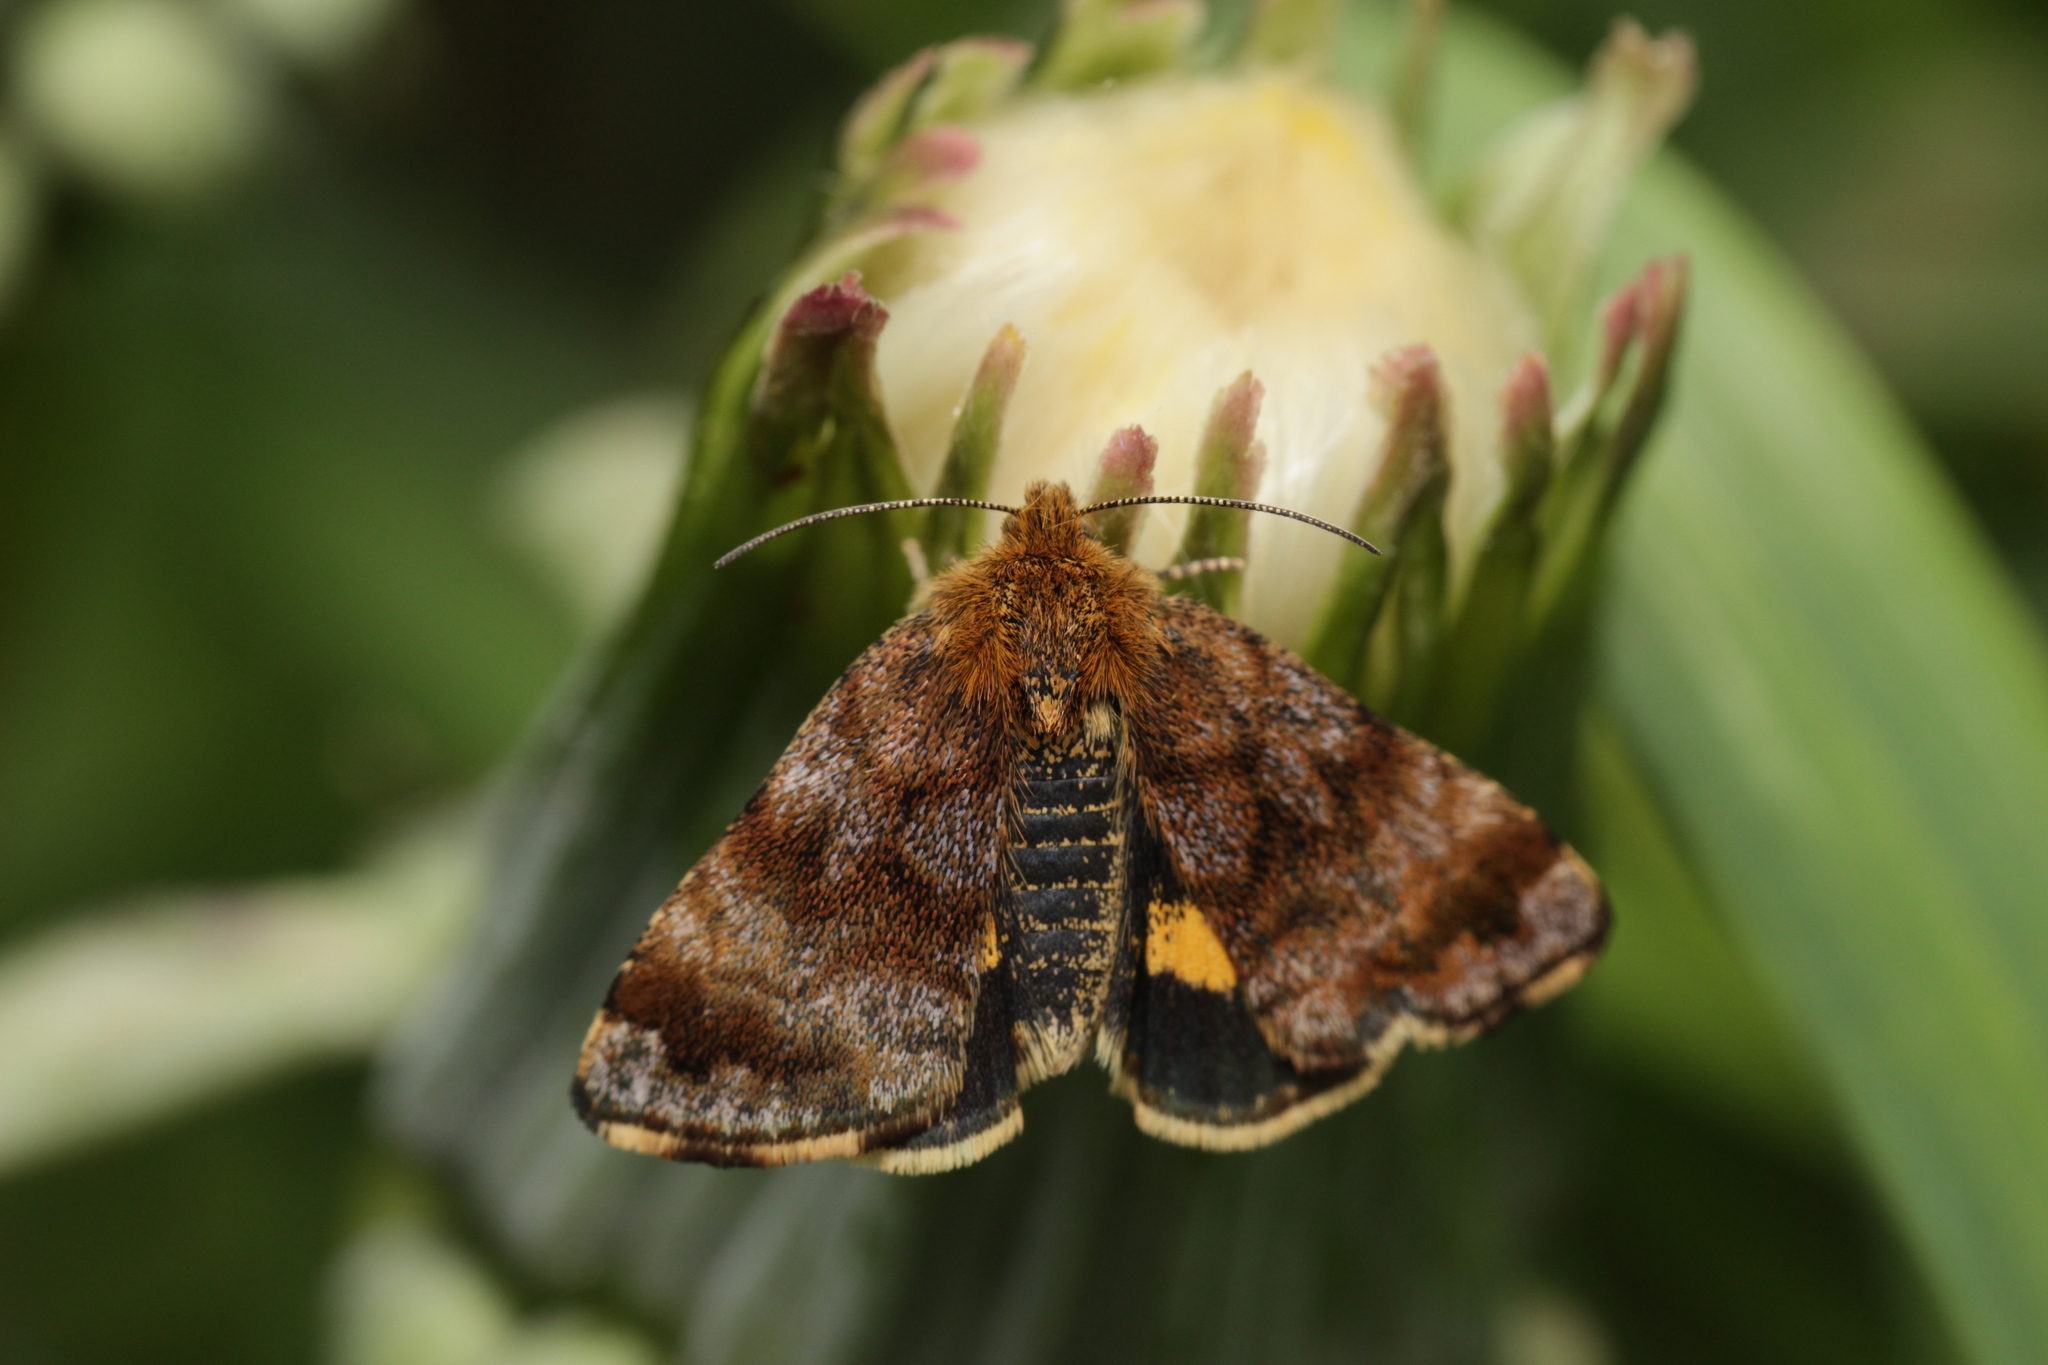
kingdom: Animalia
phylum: Arthropoda
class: Insecta
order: Lepidoptera
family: Noctuidae
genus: Panemeria
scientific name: Panemeria tenebrata
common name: Small yellow underwing
